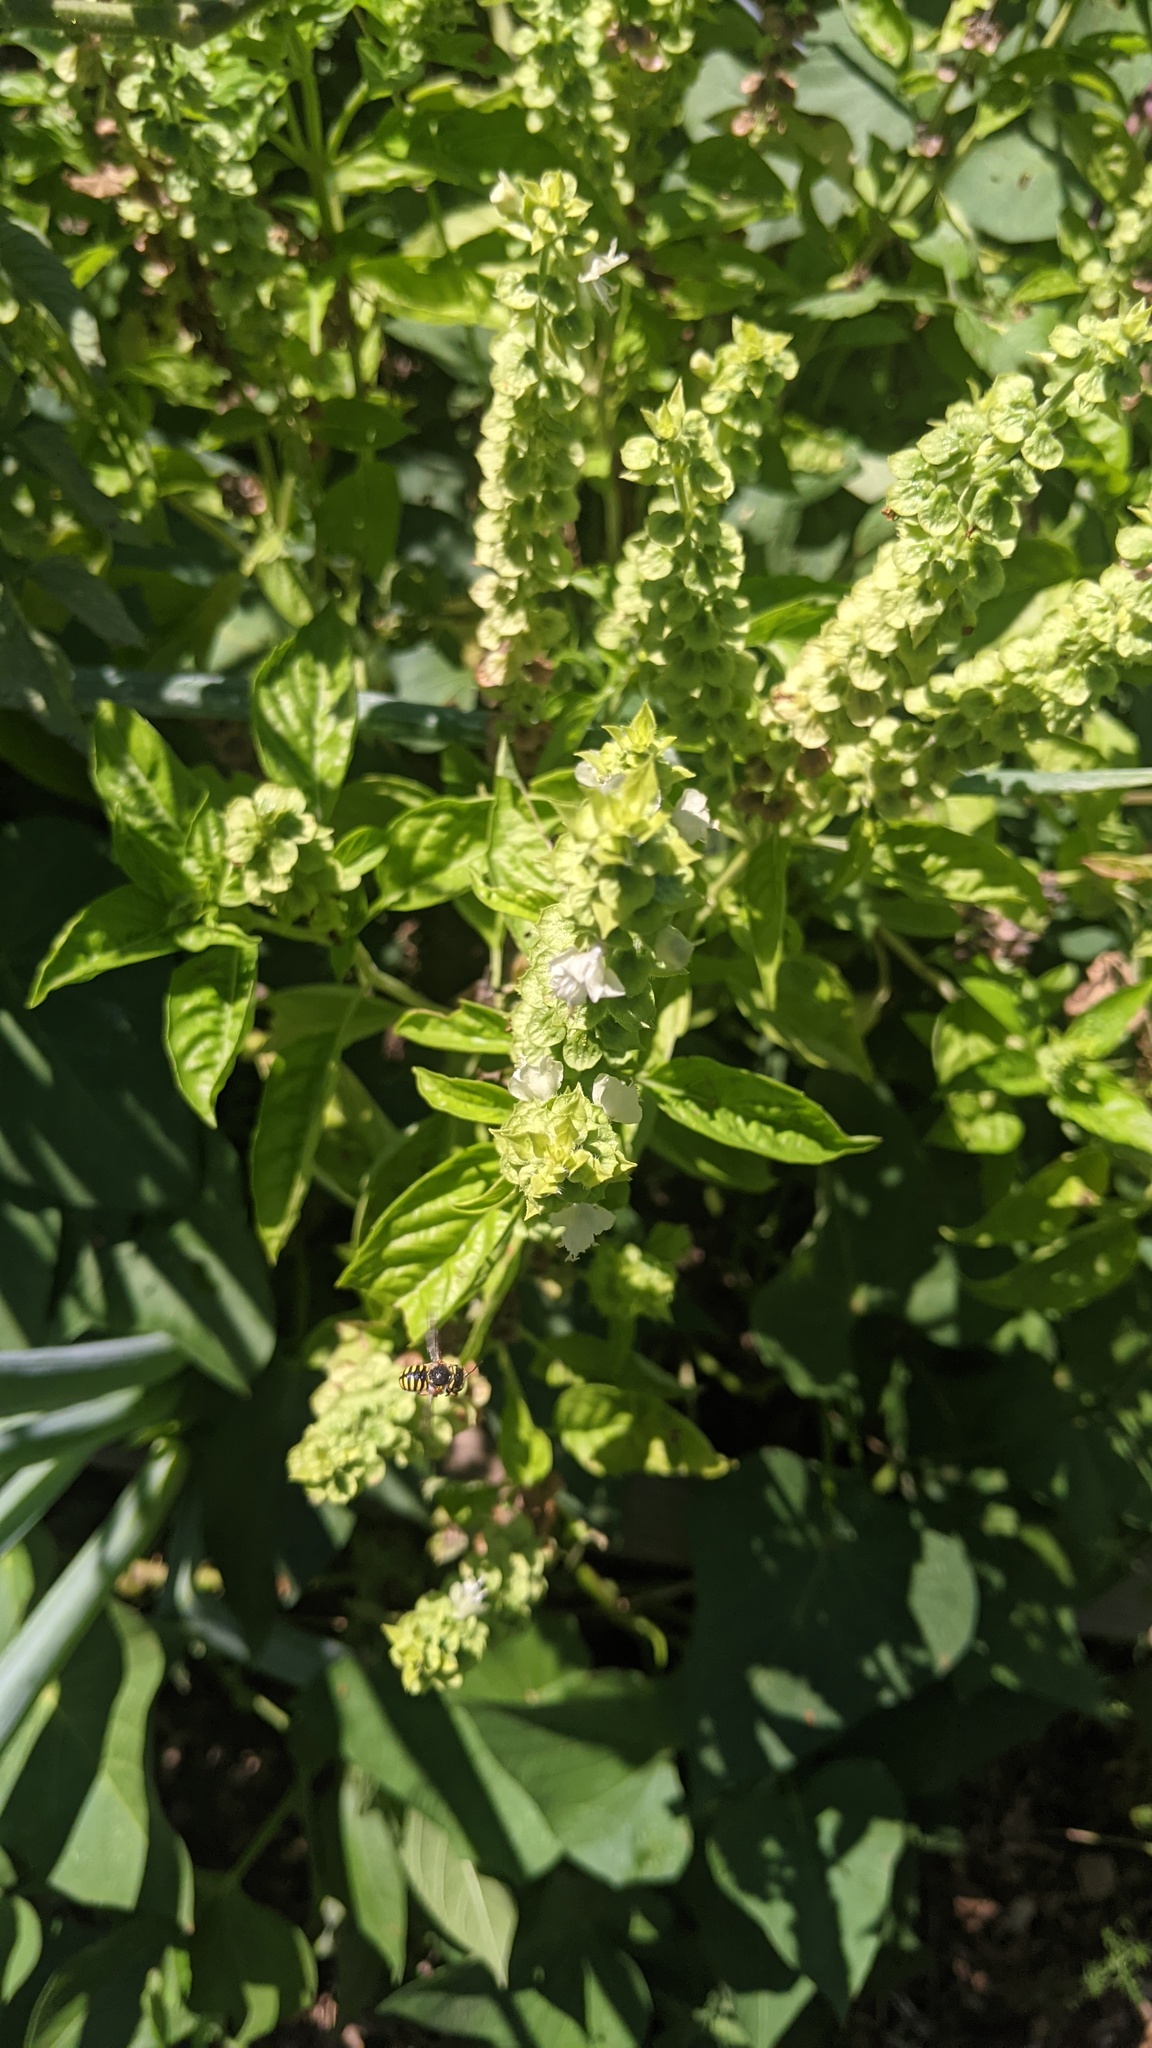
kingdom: Animalia
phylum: Arthropoda
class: Insecta
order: Hymenoptera
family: Megachilidae
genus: Anthidium
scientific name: Anthidium oblongatum
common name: Oblong wool carder bee
